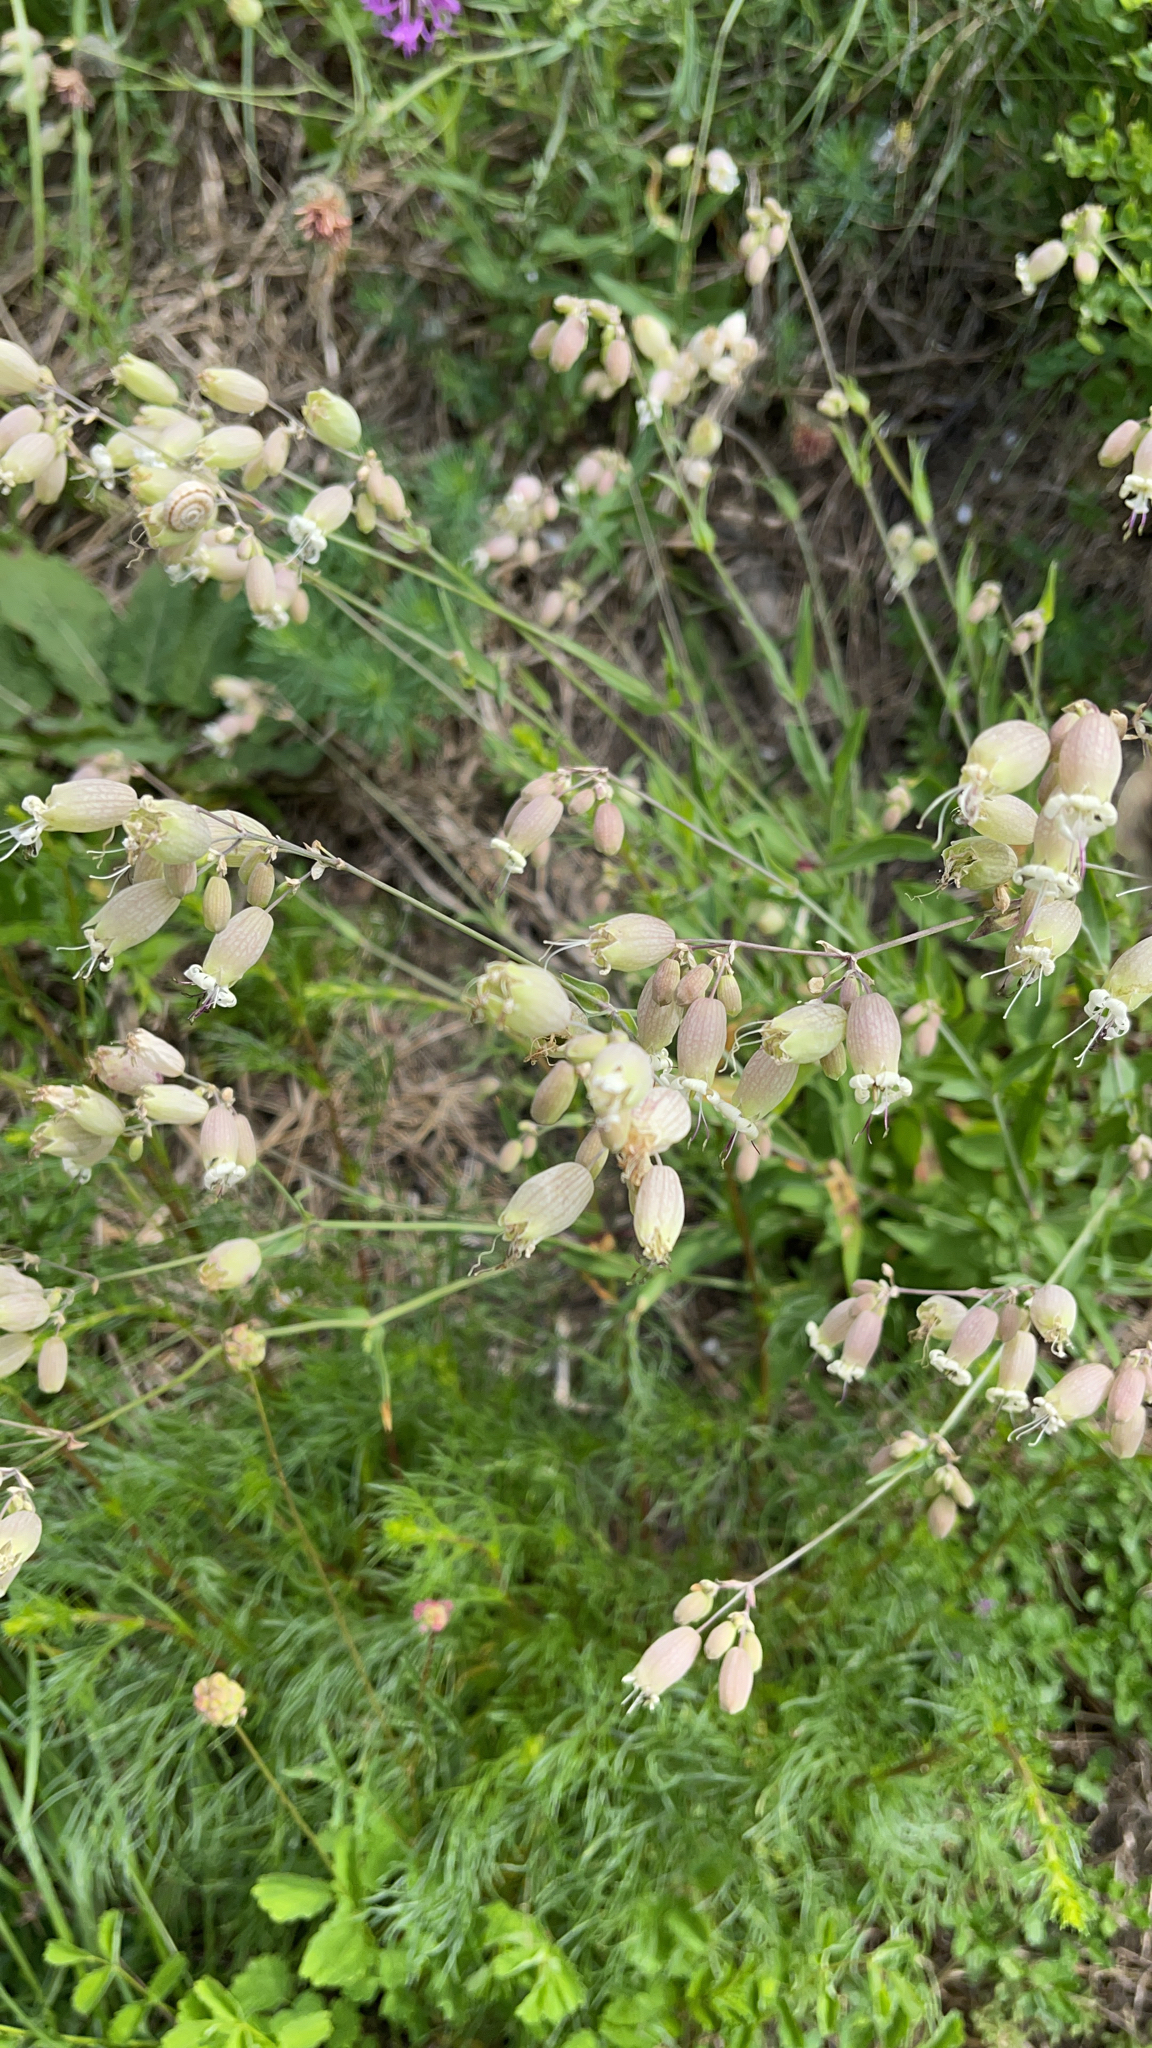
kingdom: Plantae
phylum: Tracheophyta
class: Magnoliopsida
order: Caryophyllales
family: Caryophyllaceae
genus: Silene
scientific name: Silene vulgaris
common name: Bladder campion
